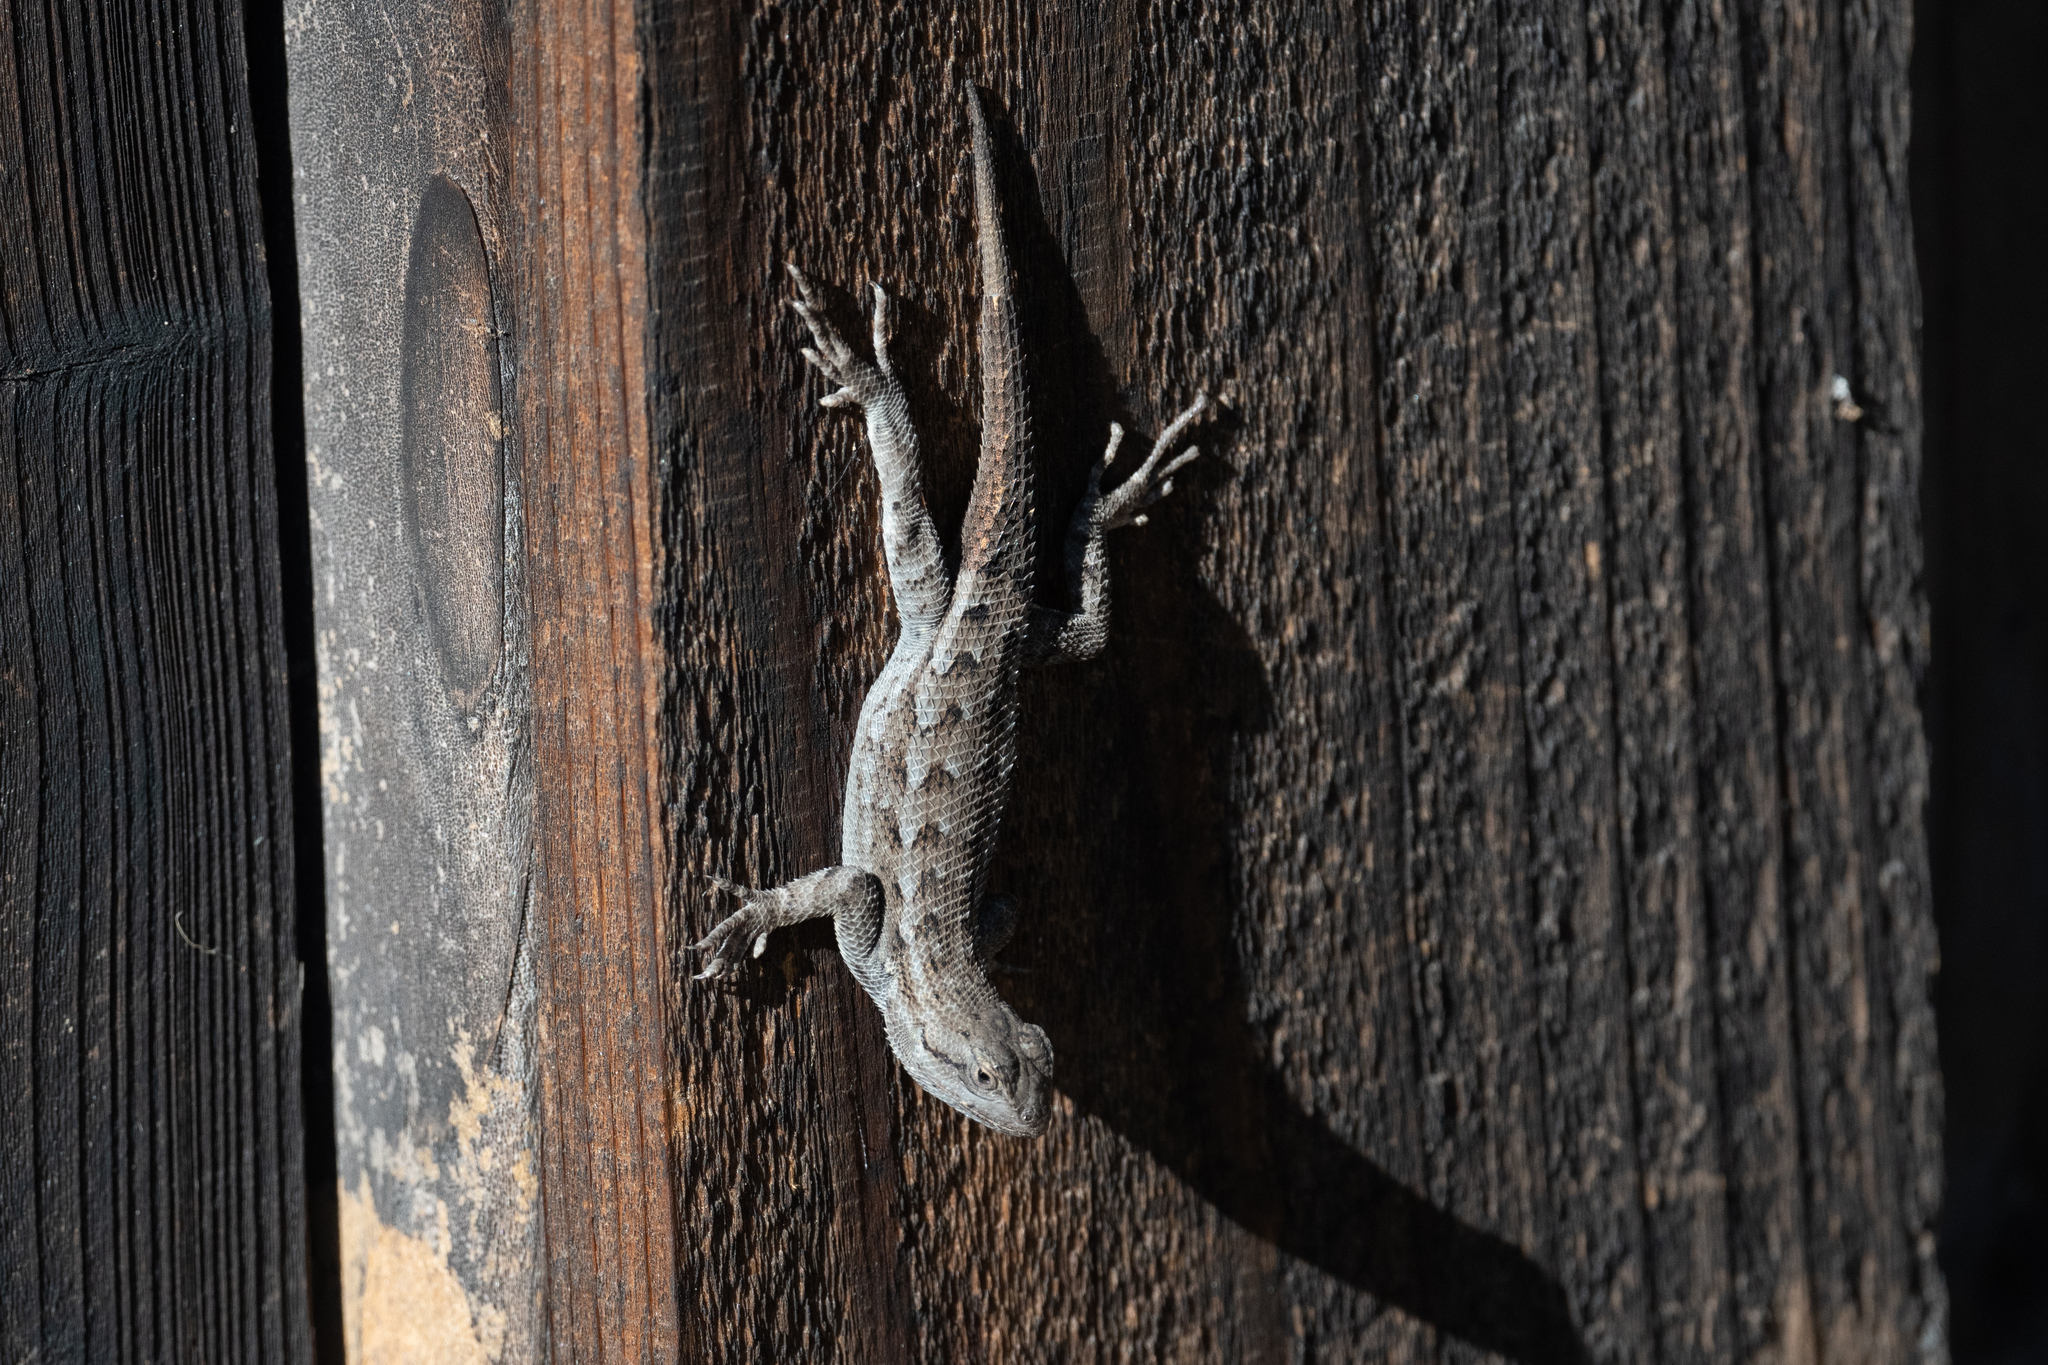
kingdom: Animalia
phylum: Chordata
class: Squamata
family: Phrynosomatidae
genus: Sceloporus
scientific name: Sceloporus occidentalis
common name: Western fence lizard
